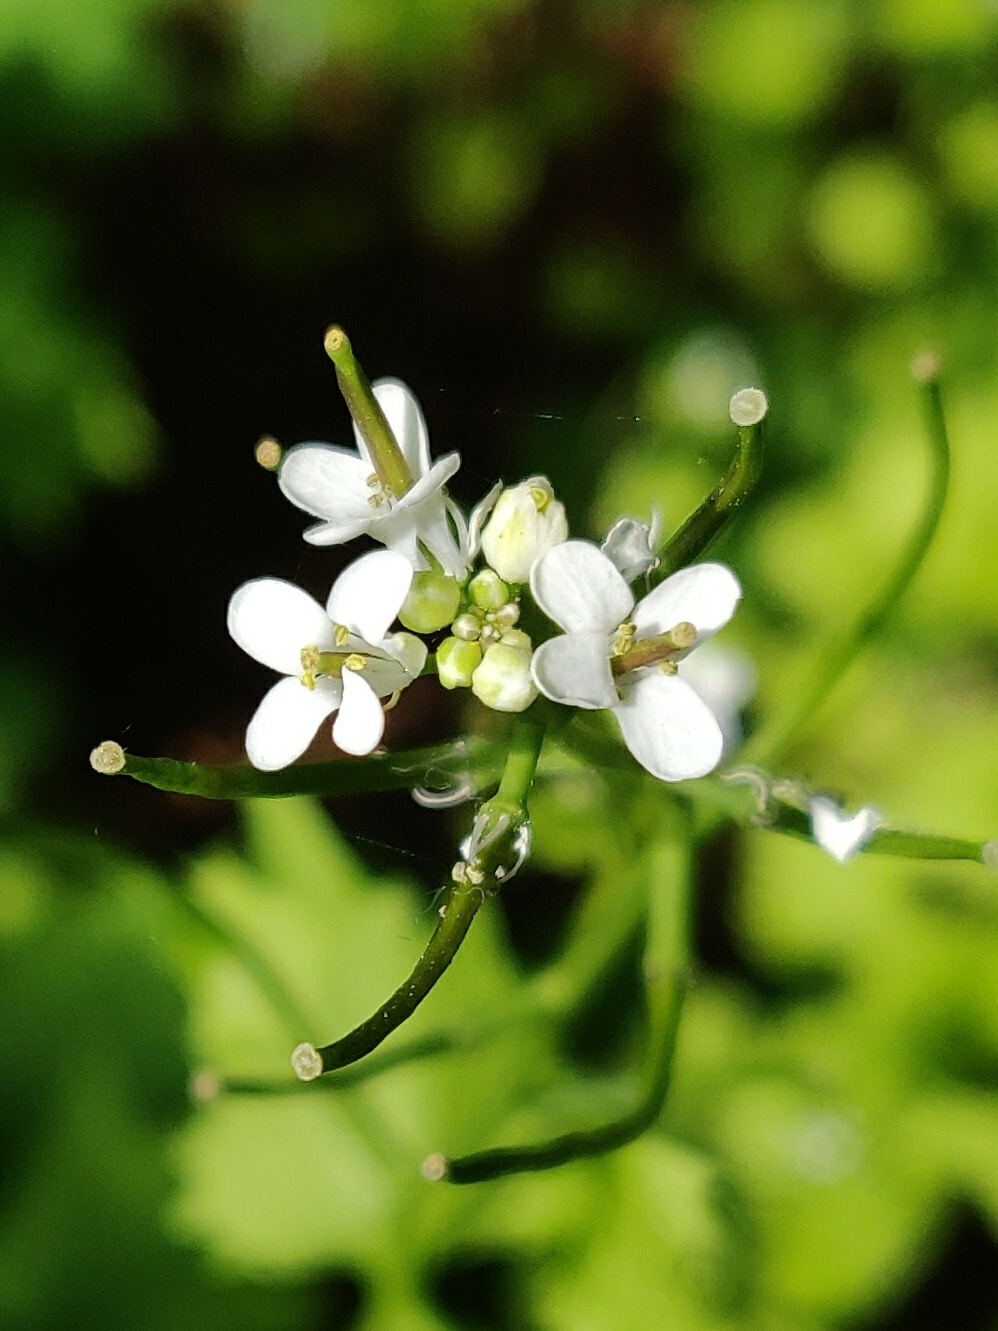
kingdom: Plantae
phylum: Tracheophyta
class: Magnoliopsida
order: Brassicales
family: Brassicaceae
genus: Alliaria
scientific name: Alliaria petiolata
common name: Garlic mustard
